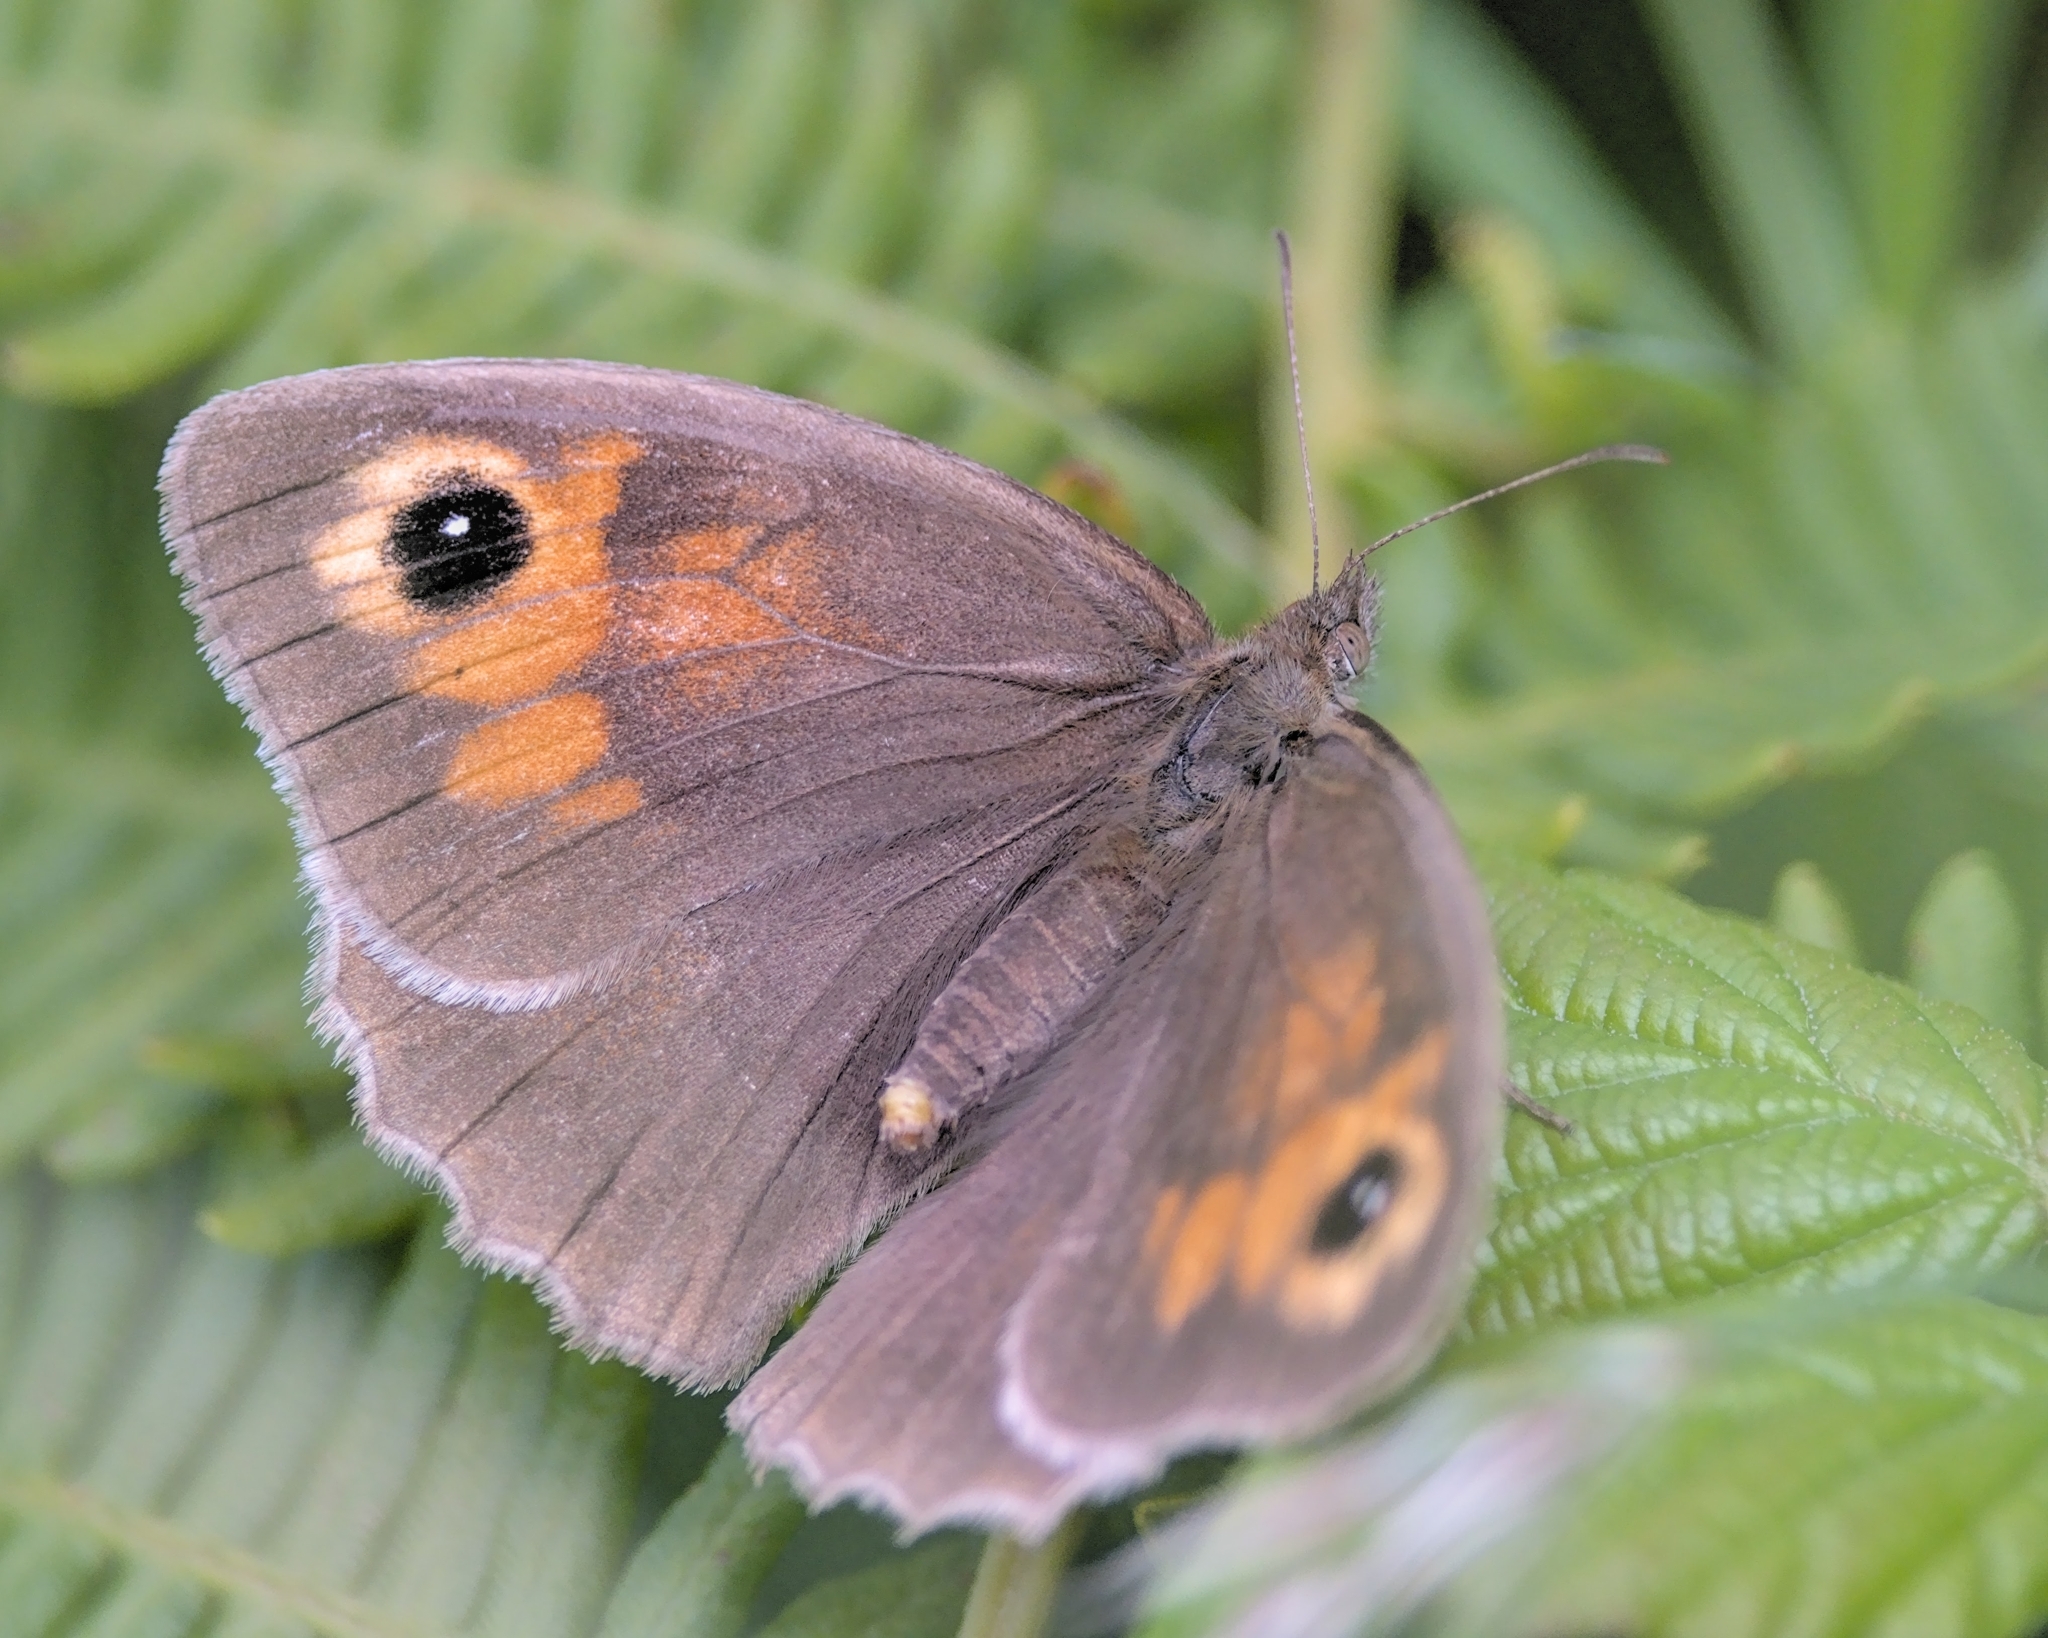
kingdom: Animalia
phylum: Arthropoda
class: Insecta
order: Lepidoptera
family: Nymphalidae
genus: Maniola
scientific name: Maniola jurtina
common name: Meadow brown
